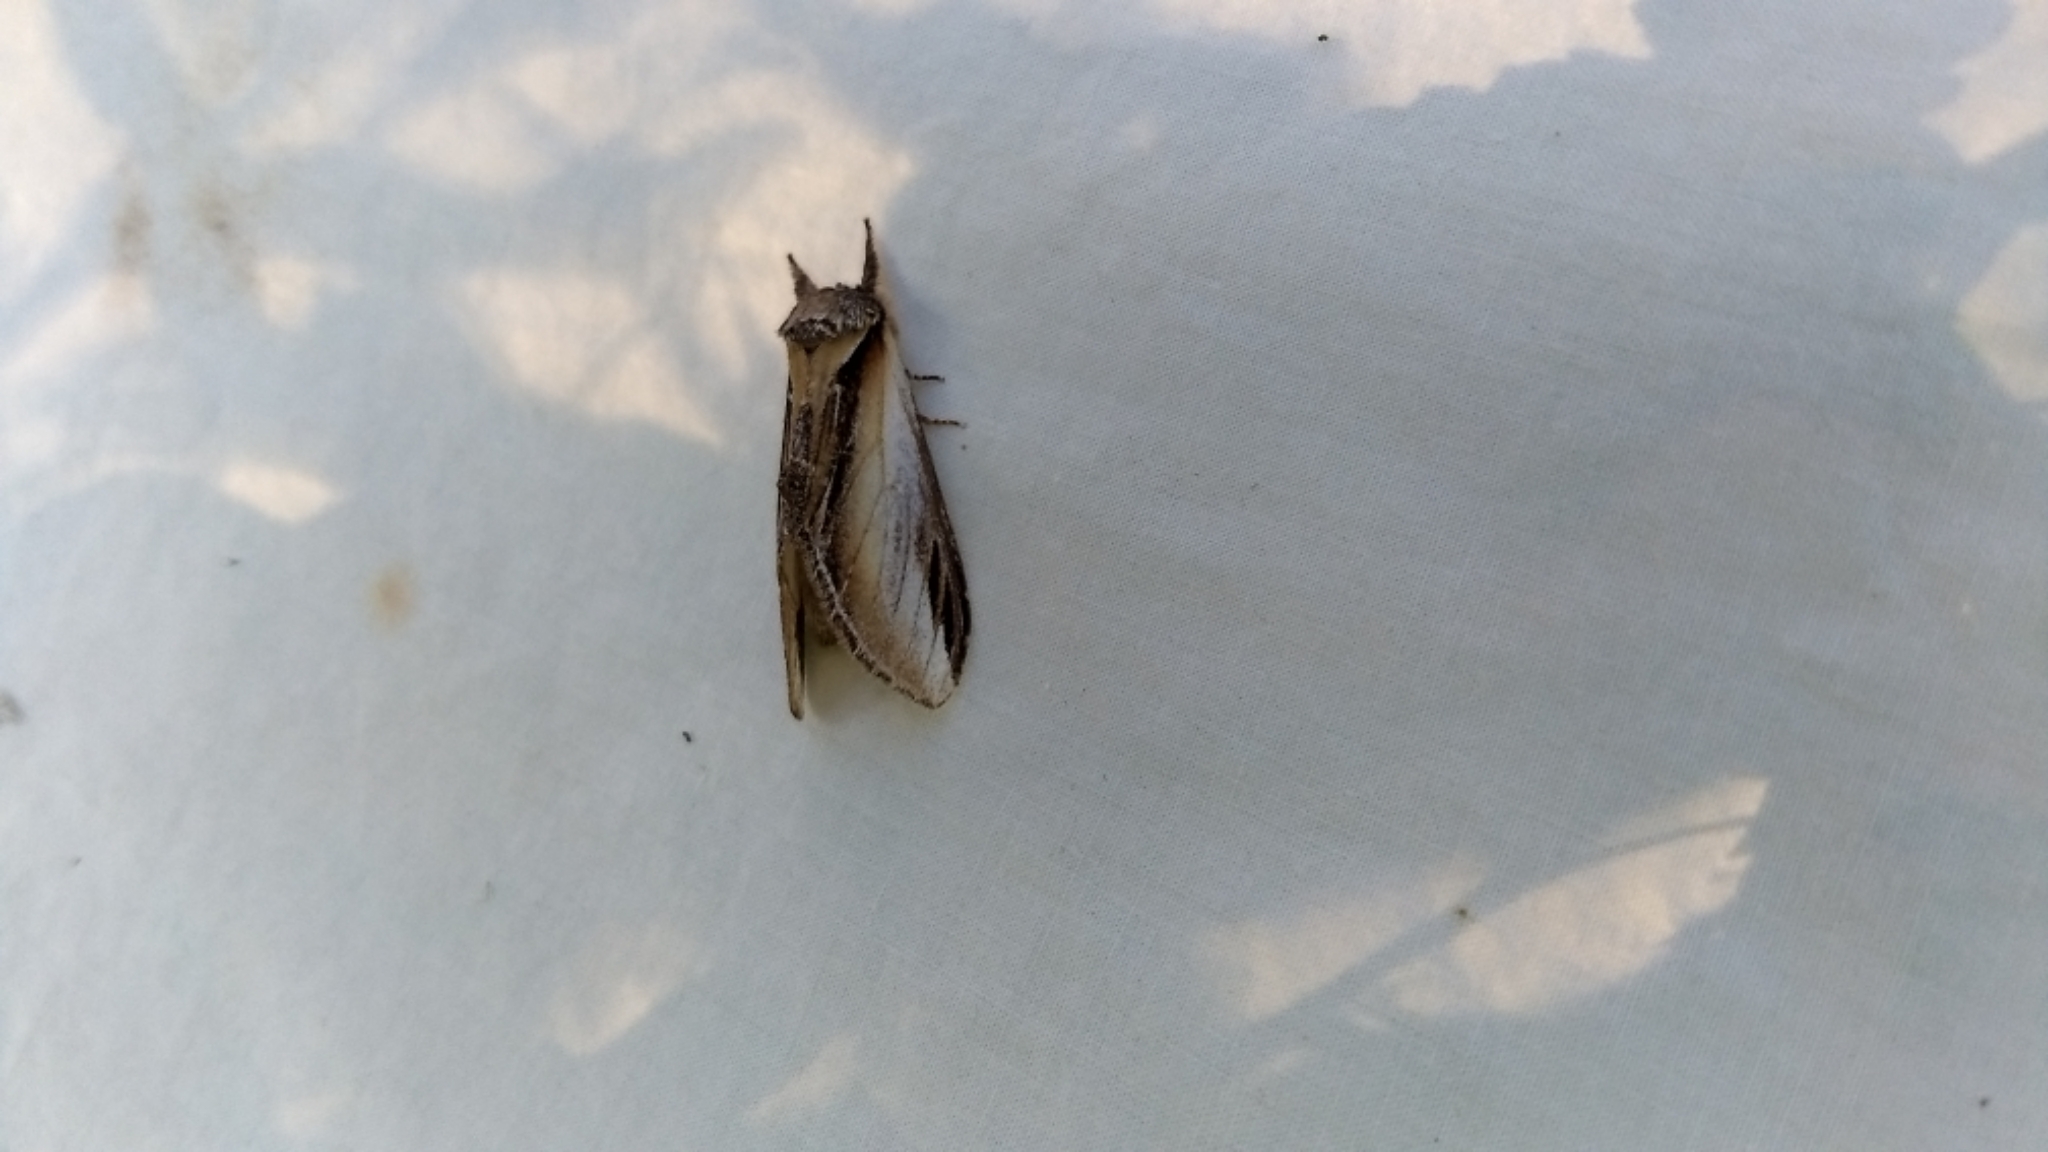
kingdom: Animalia
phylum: Arthropoda
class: Insecta
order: Lepidoptera
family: Notodontidae
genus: Pheosia
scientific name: Pheosia rimosa
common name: Black-rimmed prominent
